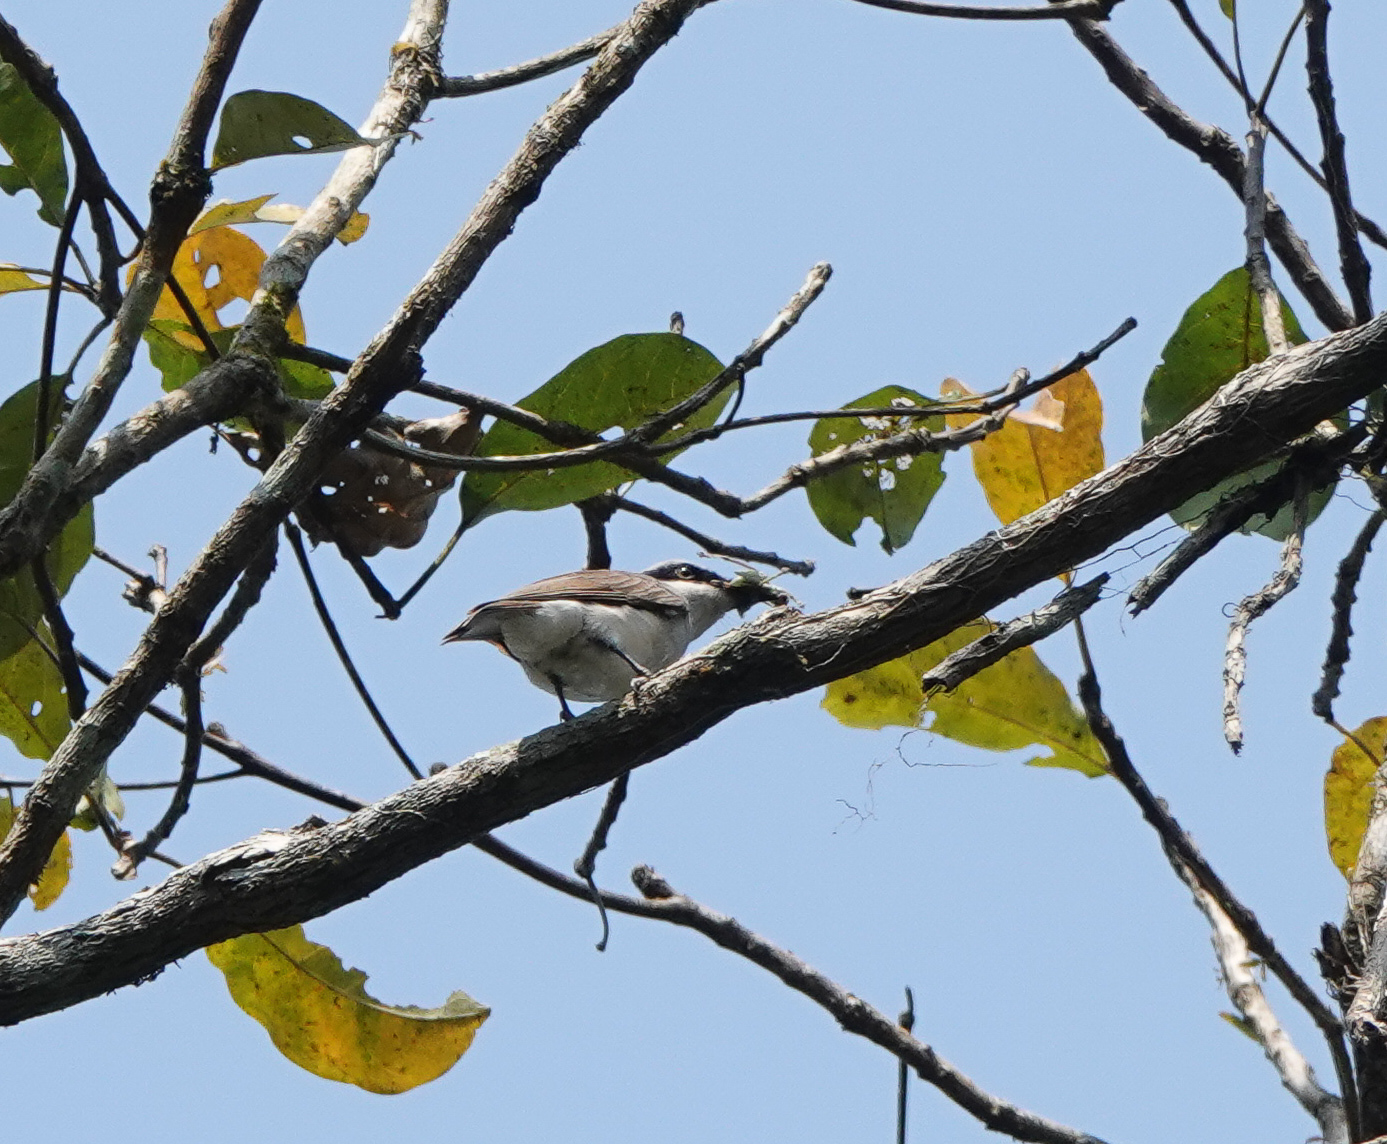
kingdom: Animalia
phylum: Chordata
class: Aves
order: Passeriformes
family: Tephrodornithidae
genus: Tephrodornis
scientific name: Tephrodornis virgatus
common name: Large woodshrike
